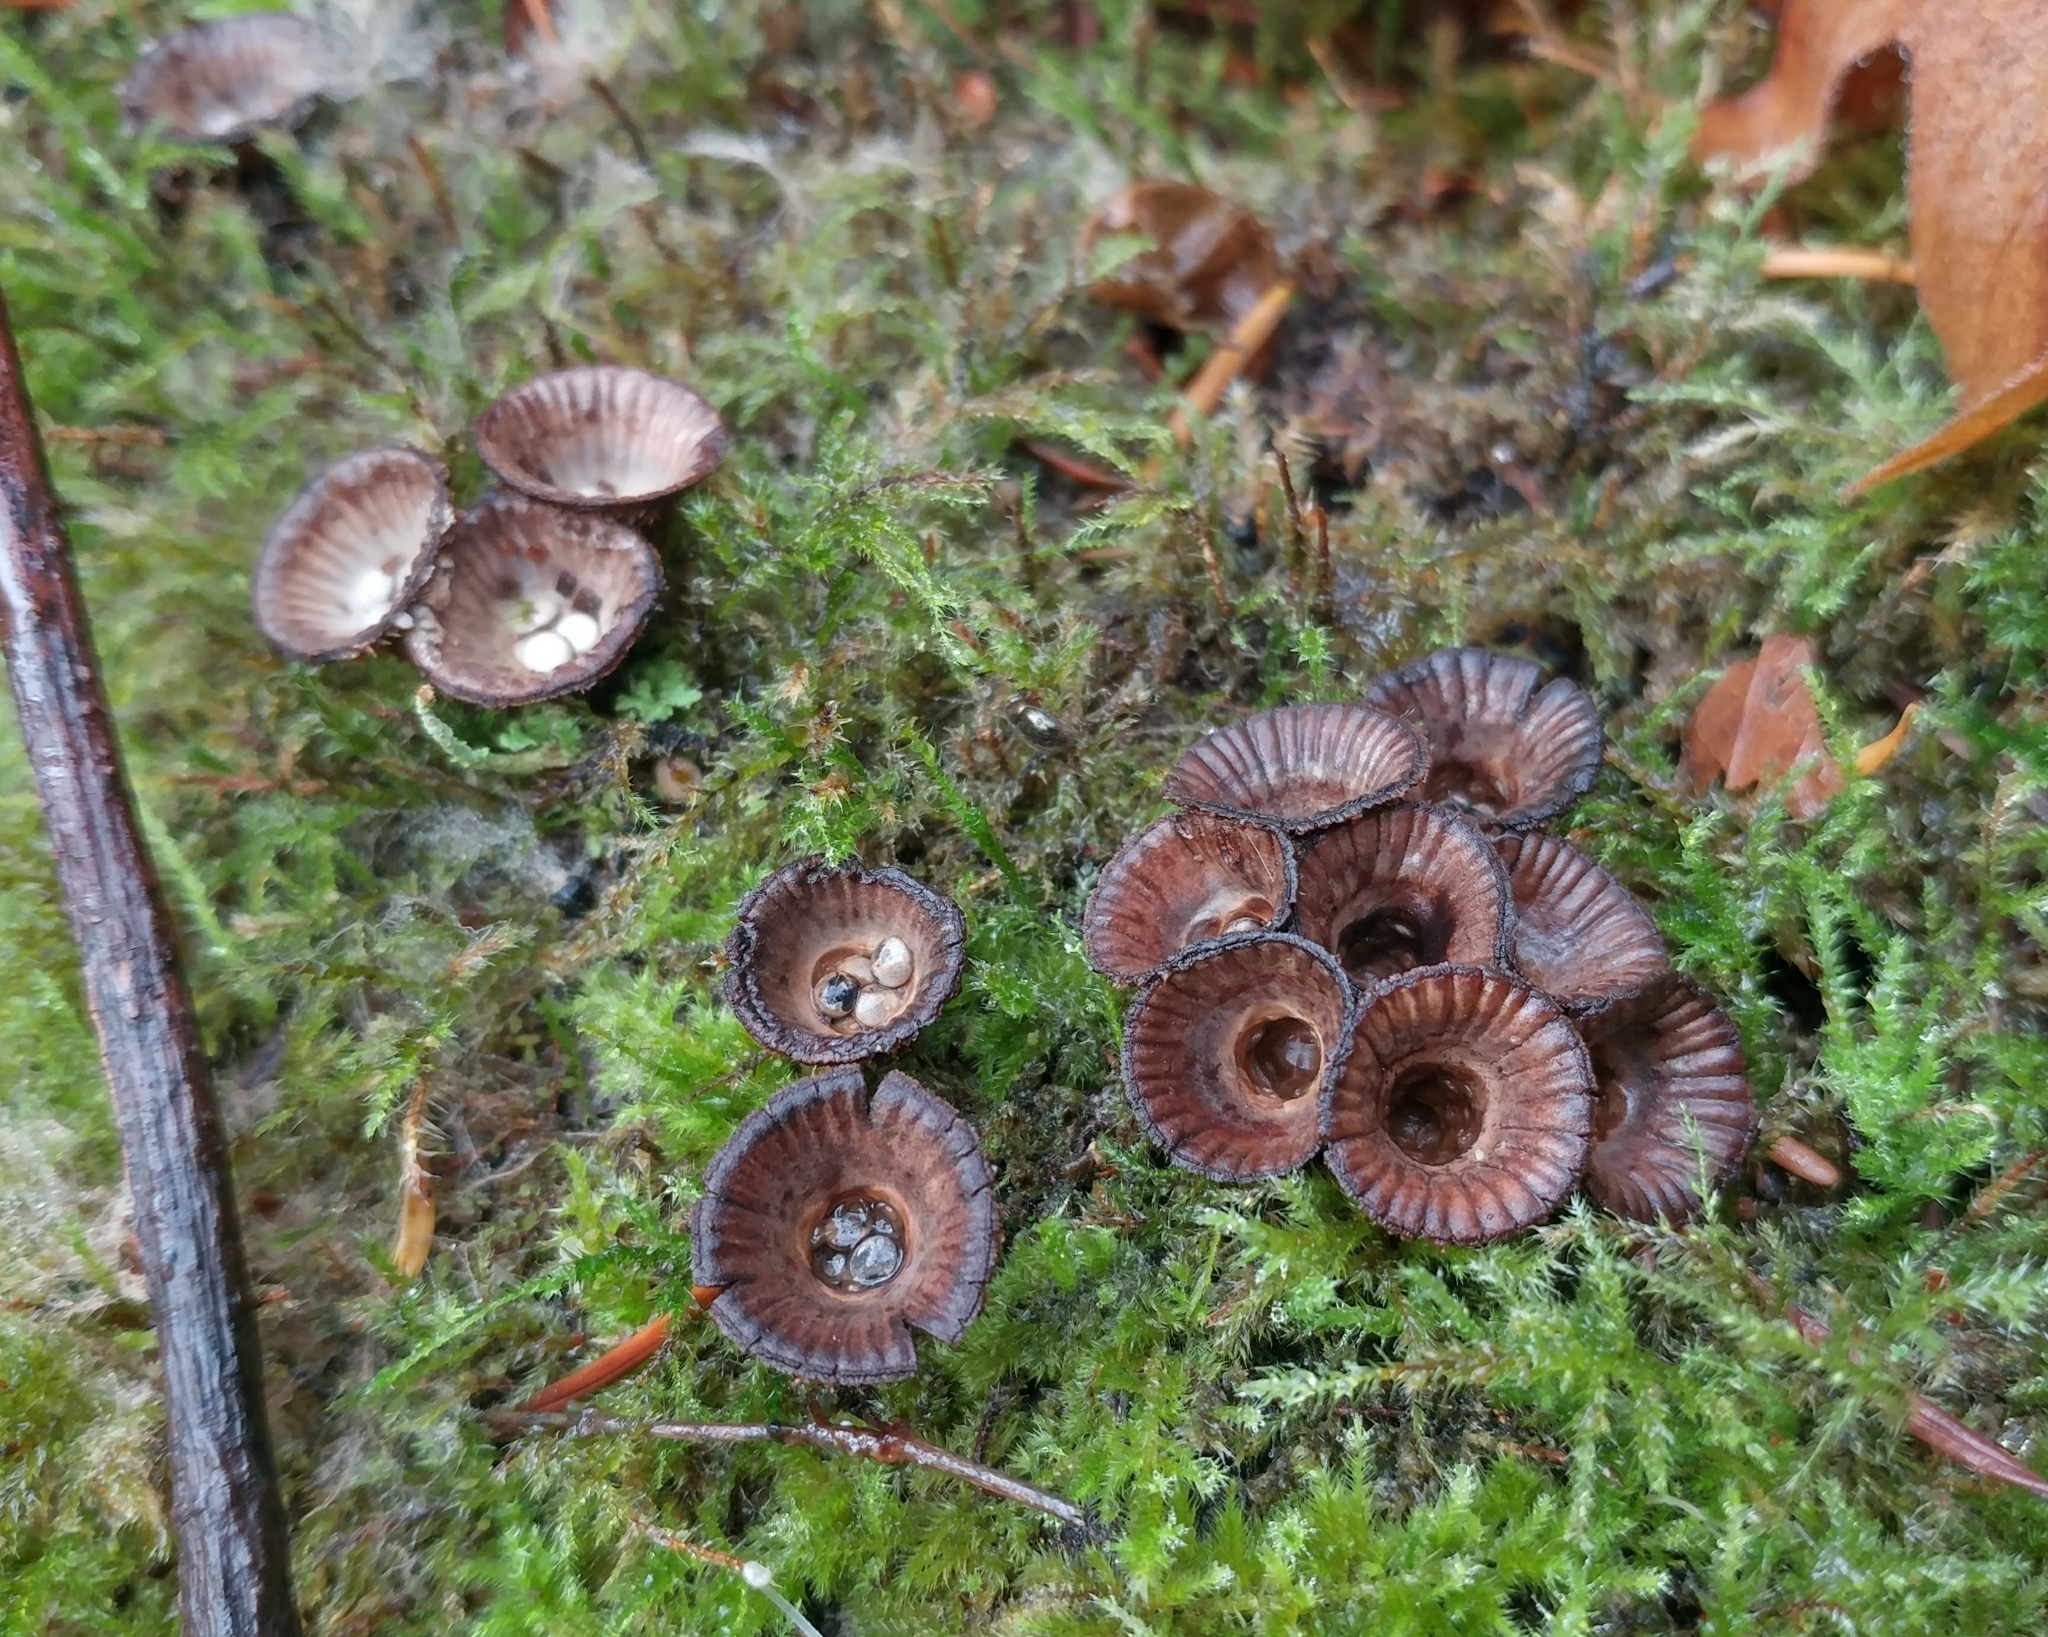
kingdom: Fungi
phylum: Basidiomycota
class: Agaricomycetes
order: Agaricales
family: Agaricaceae
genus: Cyathus
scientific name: Cyathus striatus
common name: Fluted bird's nest
